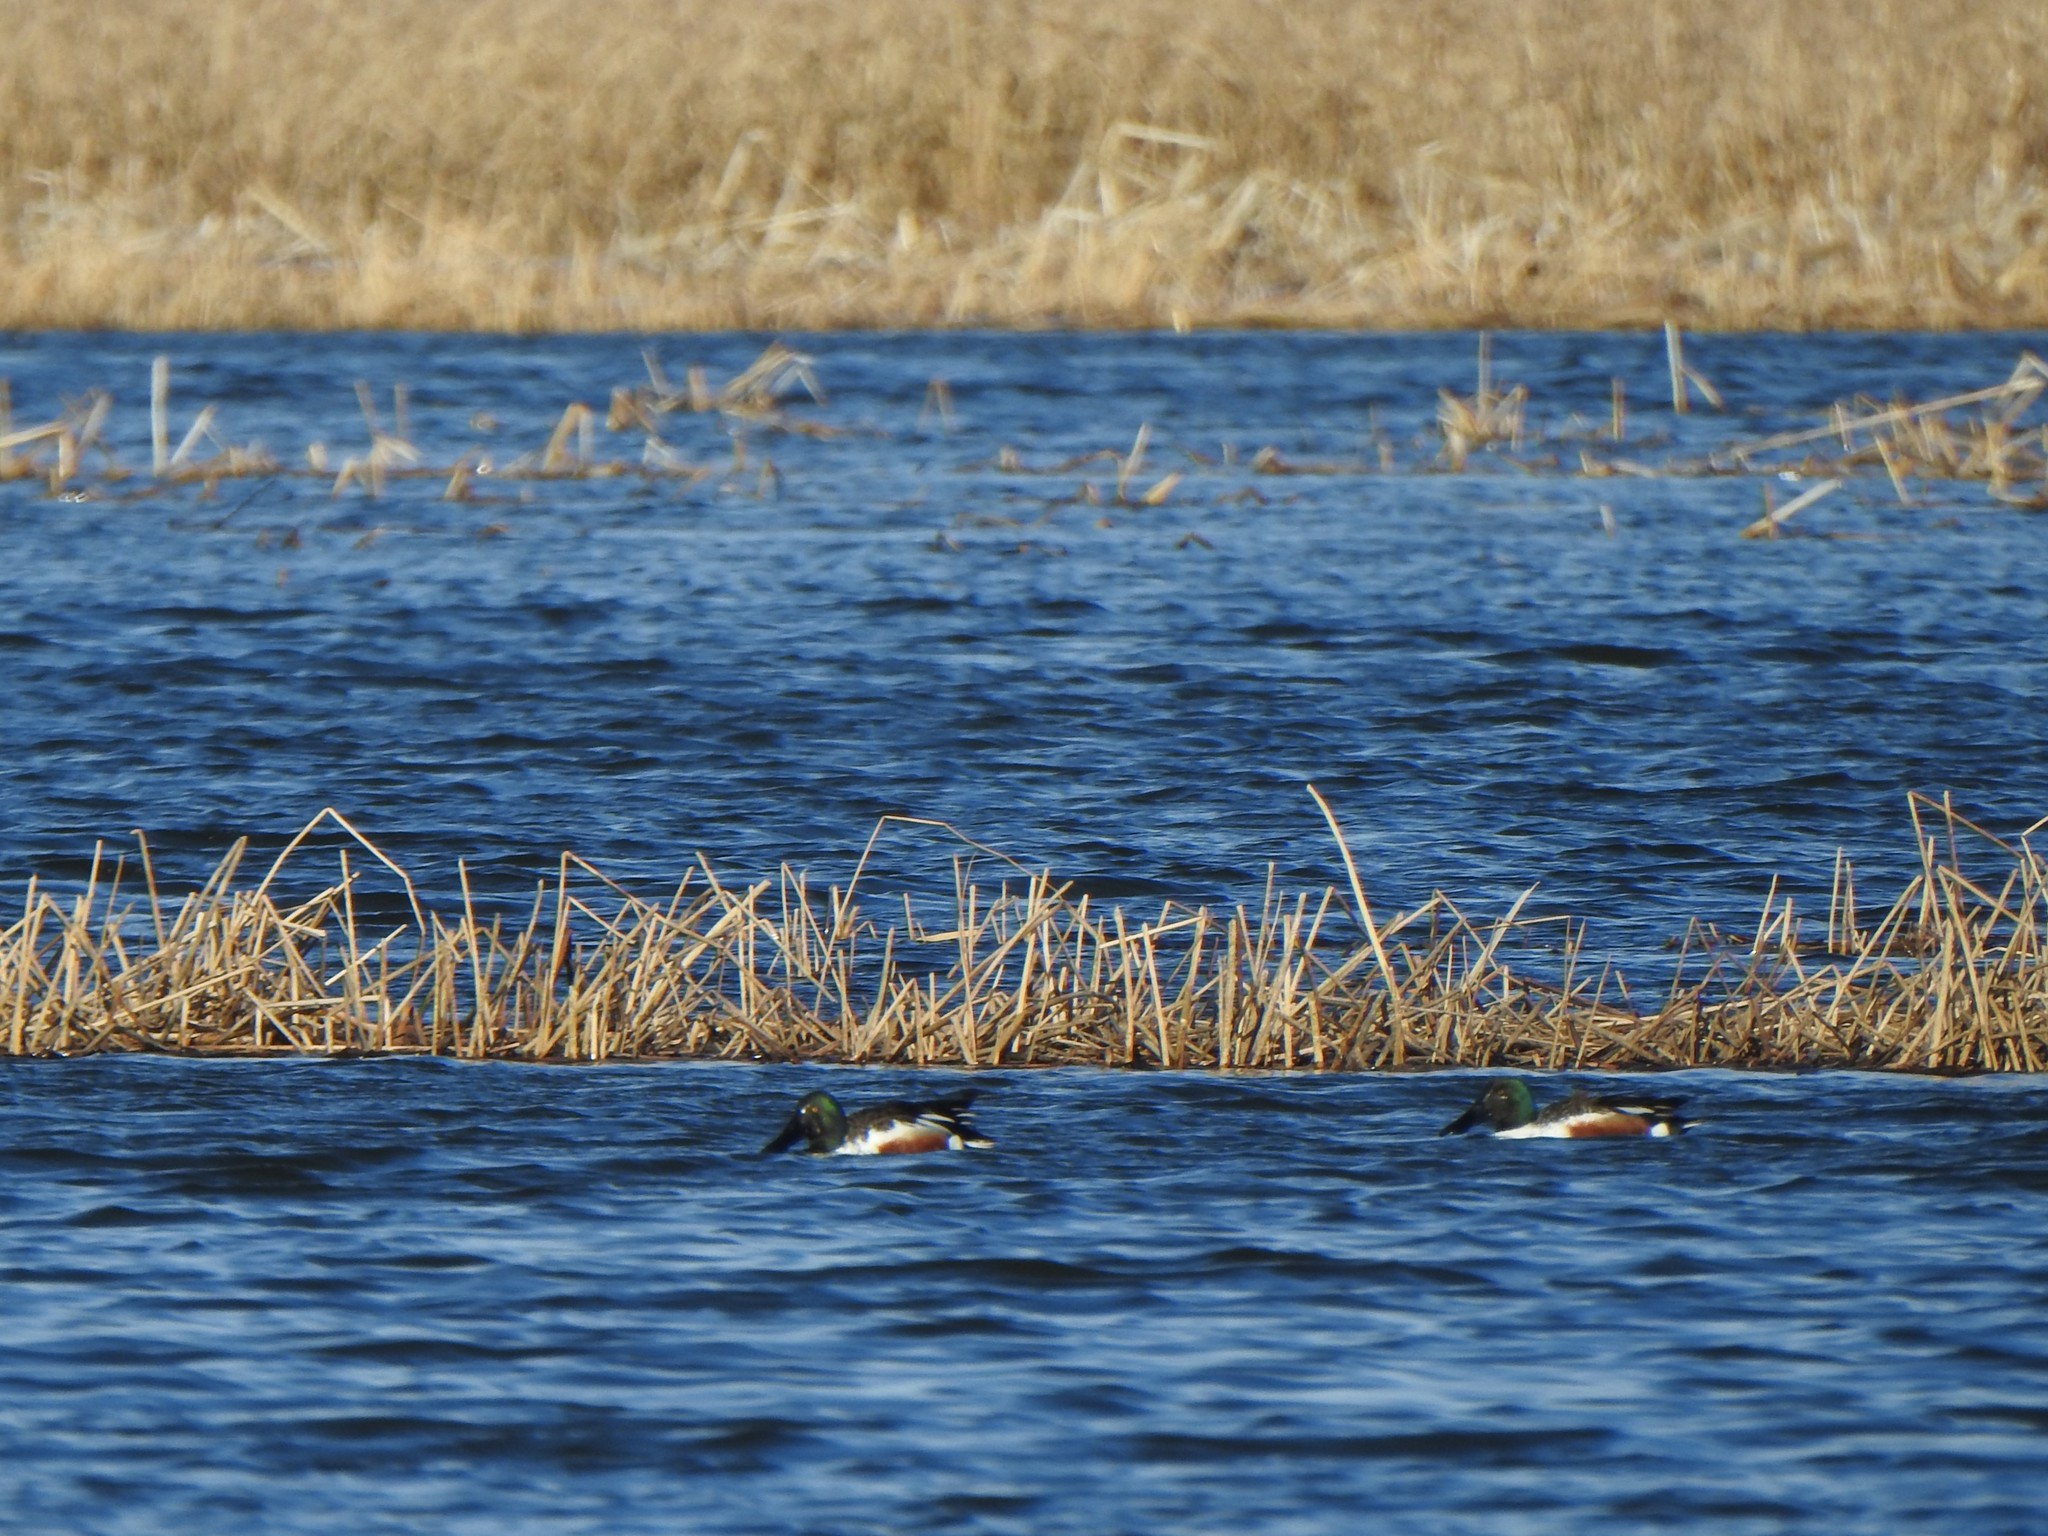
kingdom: Animalia
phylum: Chordata
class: Aves
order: Anseriformes
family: Anatidae
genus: Spatula
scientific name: Spatula clypeata
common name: Northern shoveler
